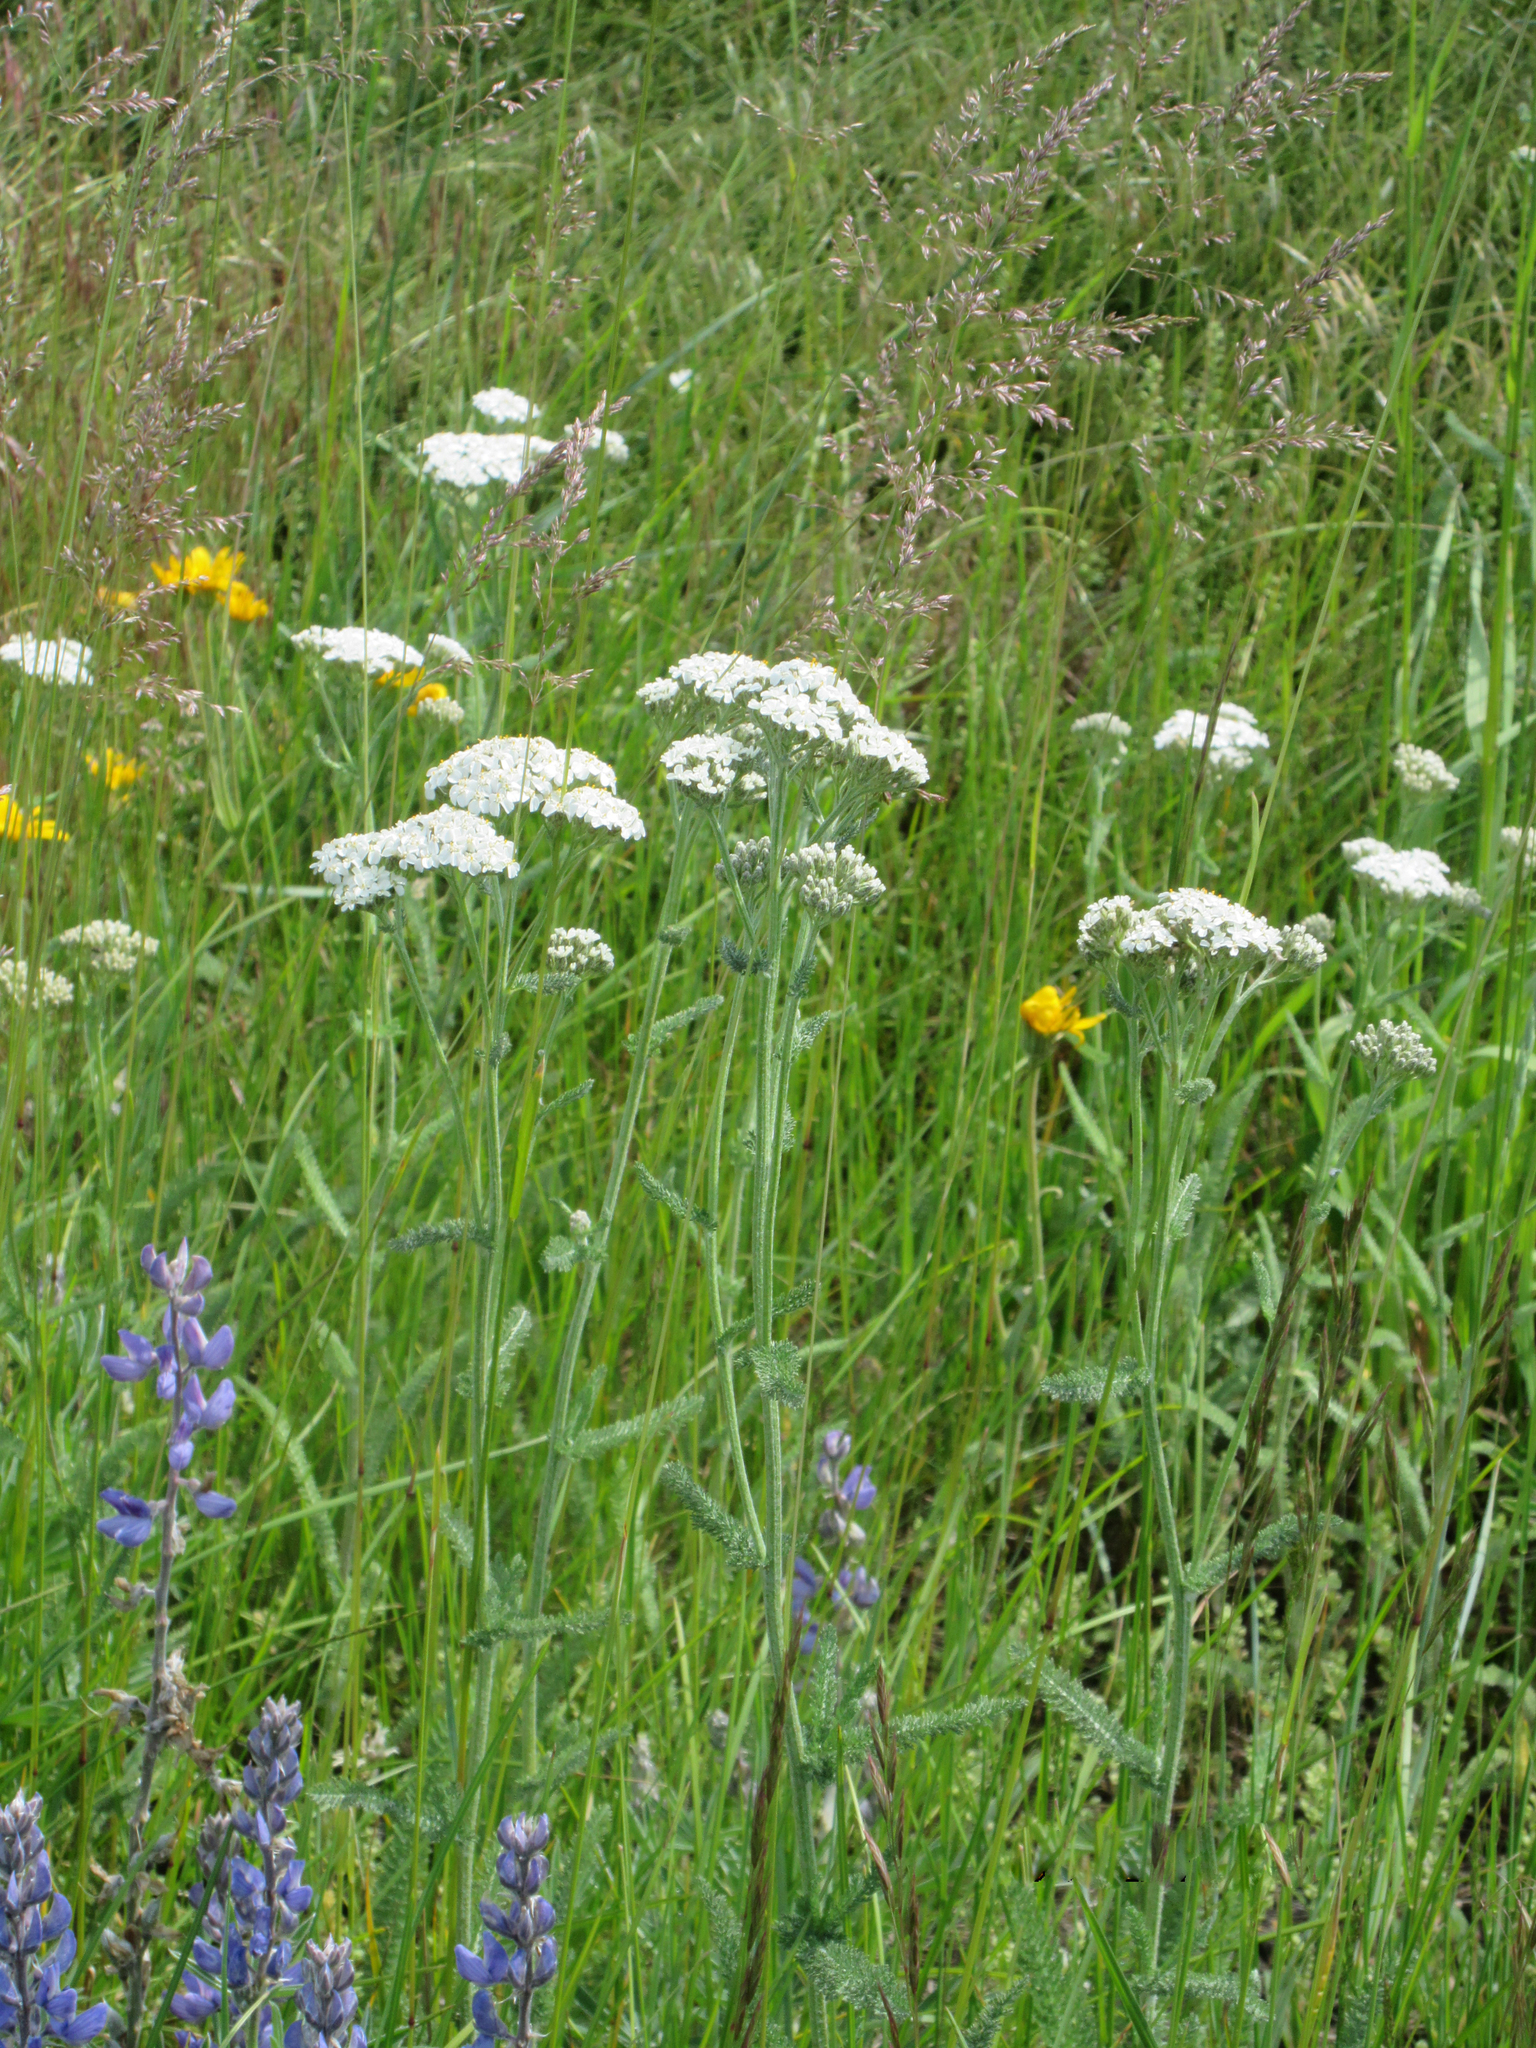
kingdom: Plantae
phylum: Tracheophyta
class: Magnoliopsida
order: Asterales
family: Asteraceae
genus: Achillea
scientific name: Achillea millefolium
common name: Yarrow
